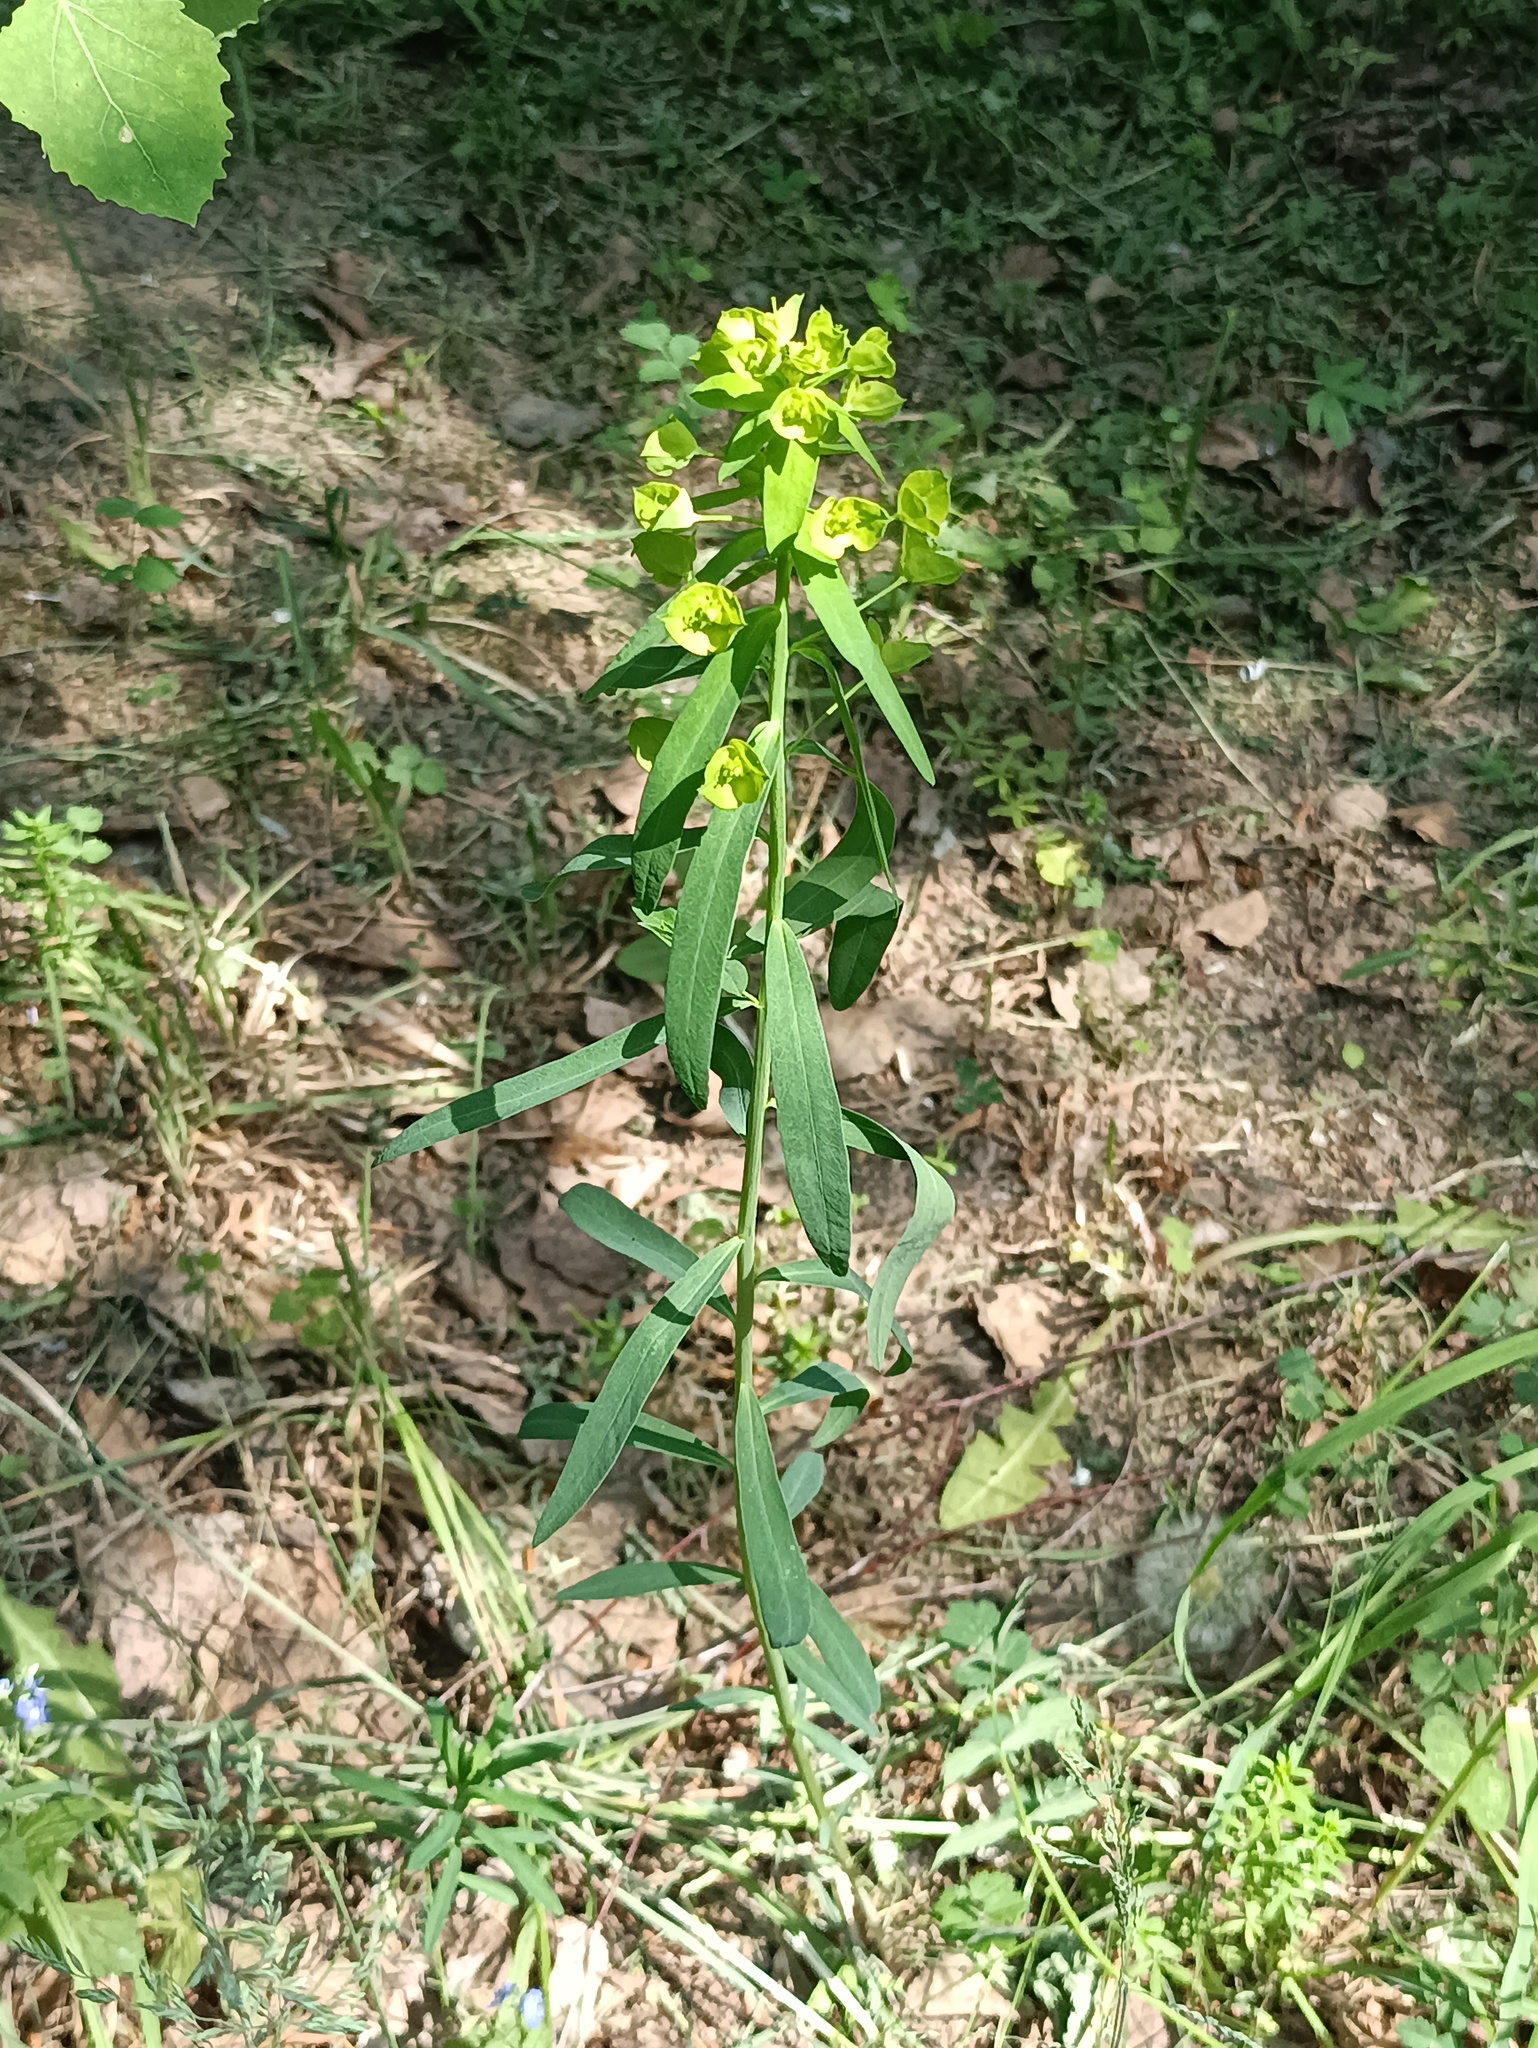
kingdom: Plantae
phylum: Tracheophyta
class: Magnoliopsida
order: Malpighiales
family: Euphorbiaceae
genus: Euphorbia
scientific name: Euphorbia virgata
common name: Leafy spurge
